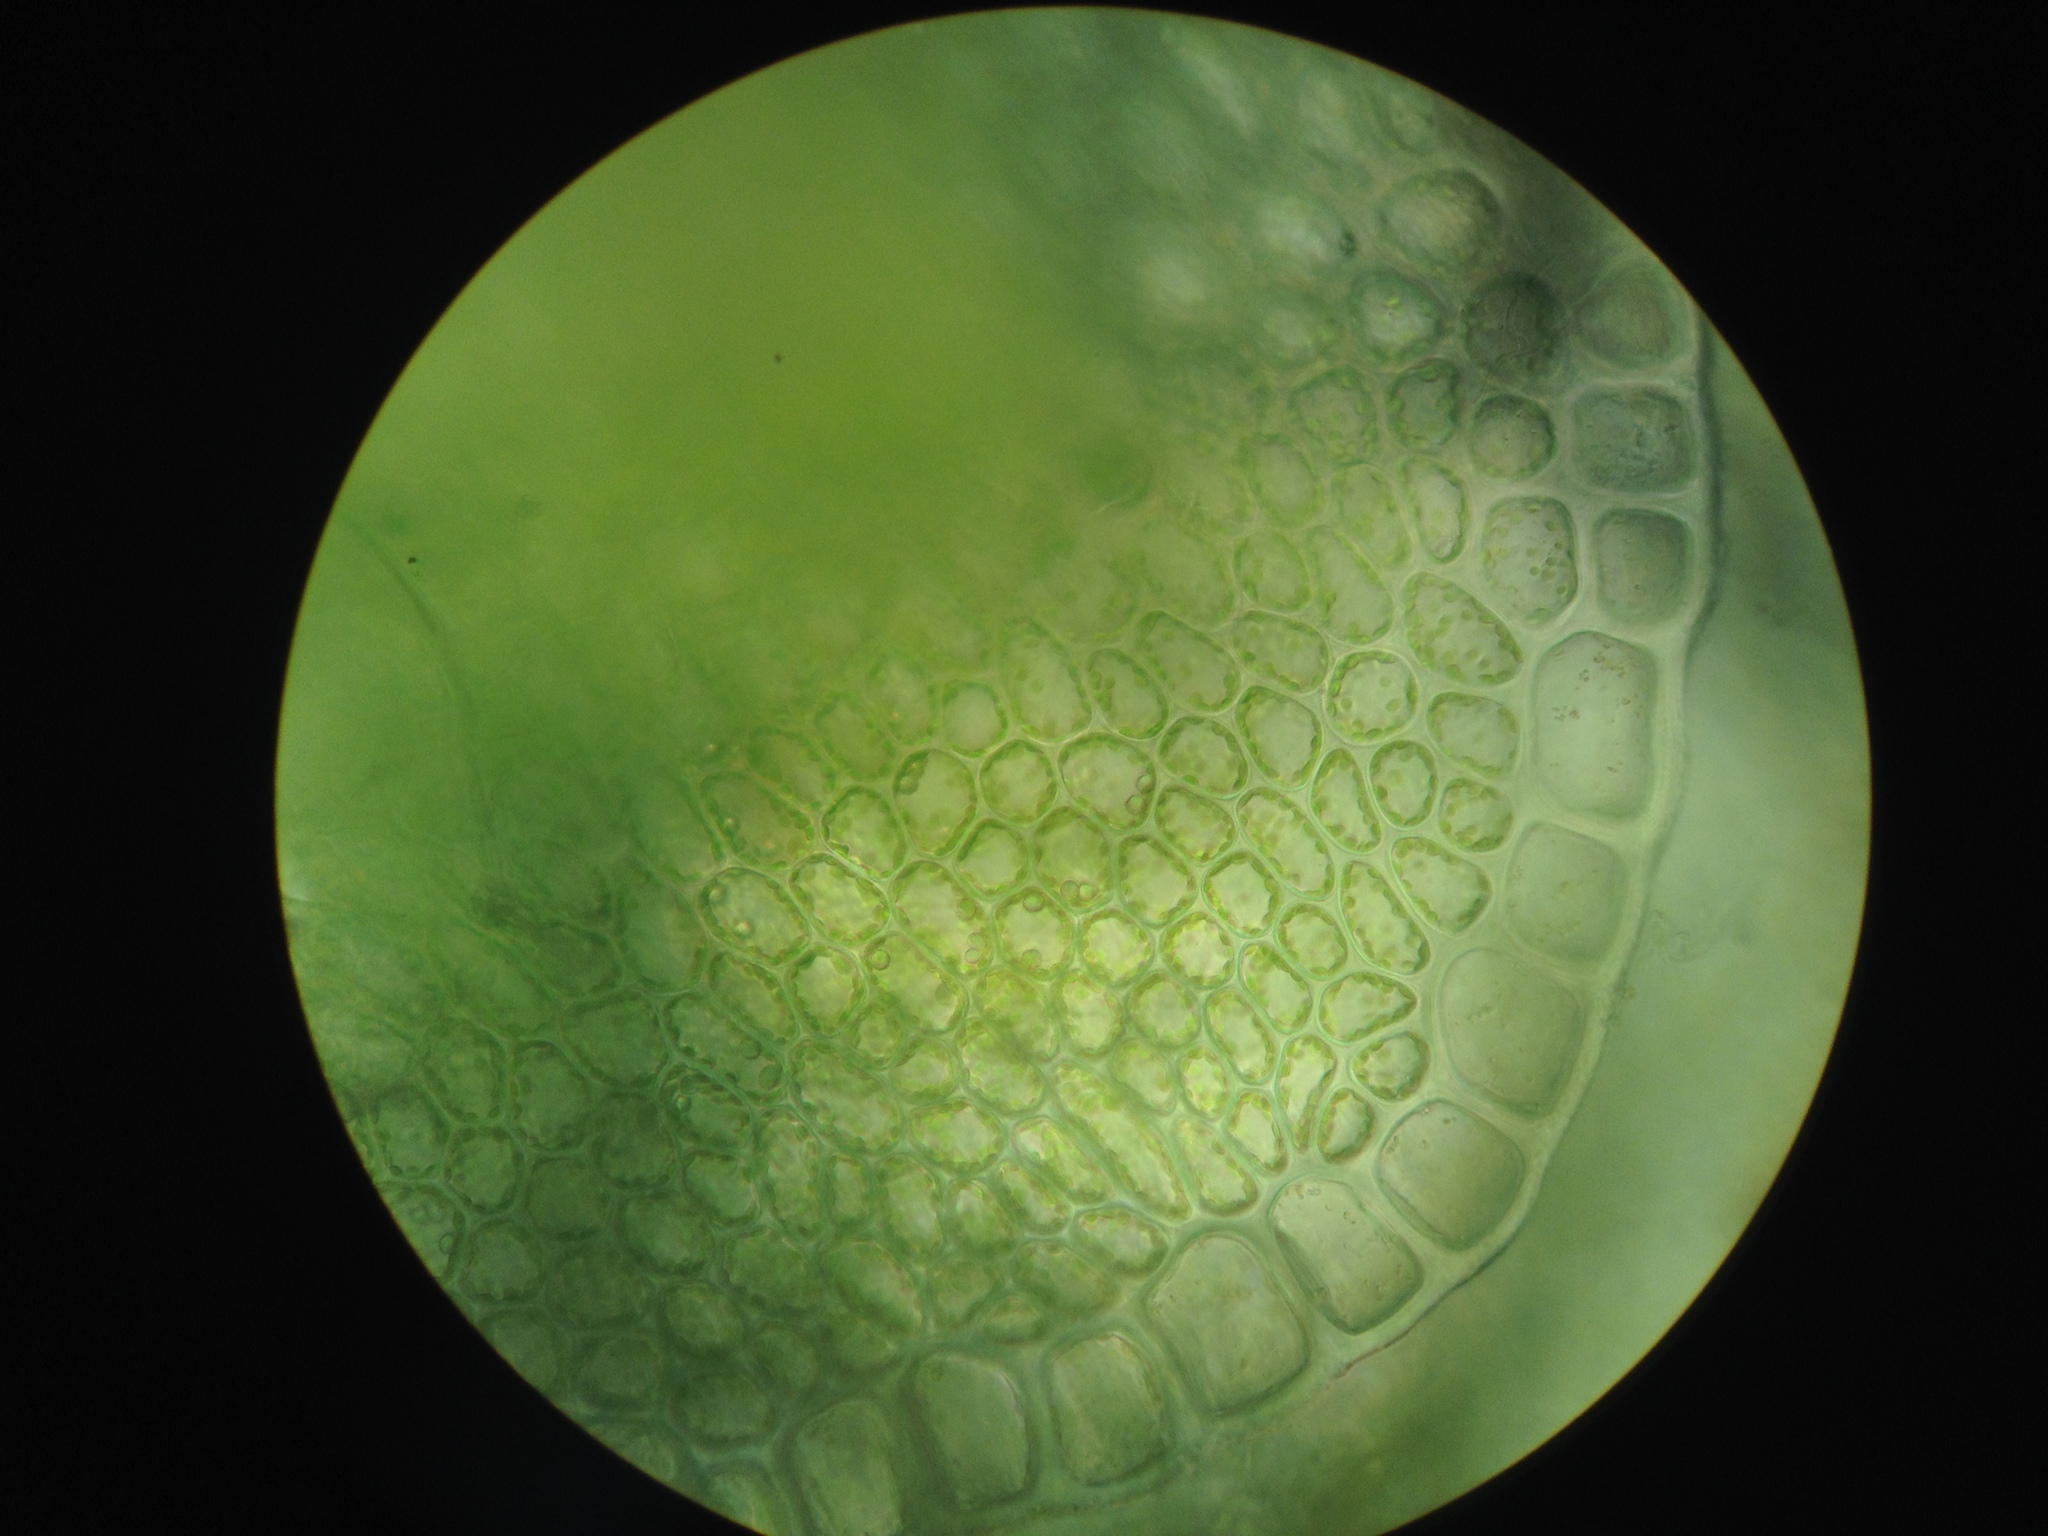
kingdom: Plantae
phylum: Marchantiophyta
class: Jungermanniopsida
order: Jungermanniales
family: Solenostomataceae
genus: Solenostoma
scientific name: Solenostoma gracillimum
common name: Crenulated flapwort
